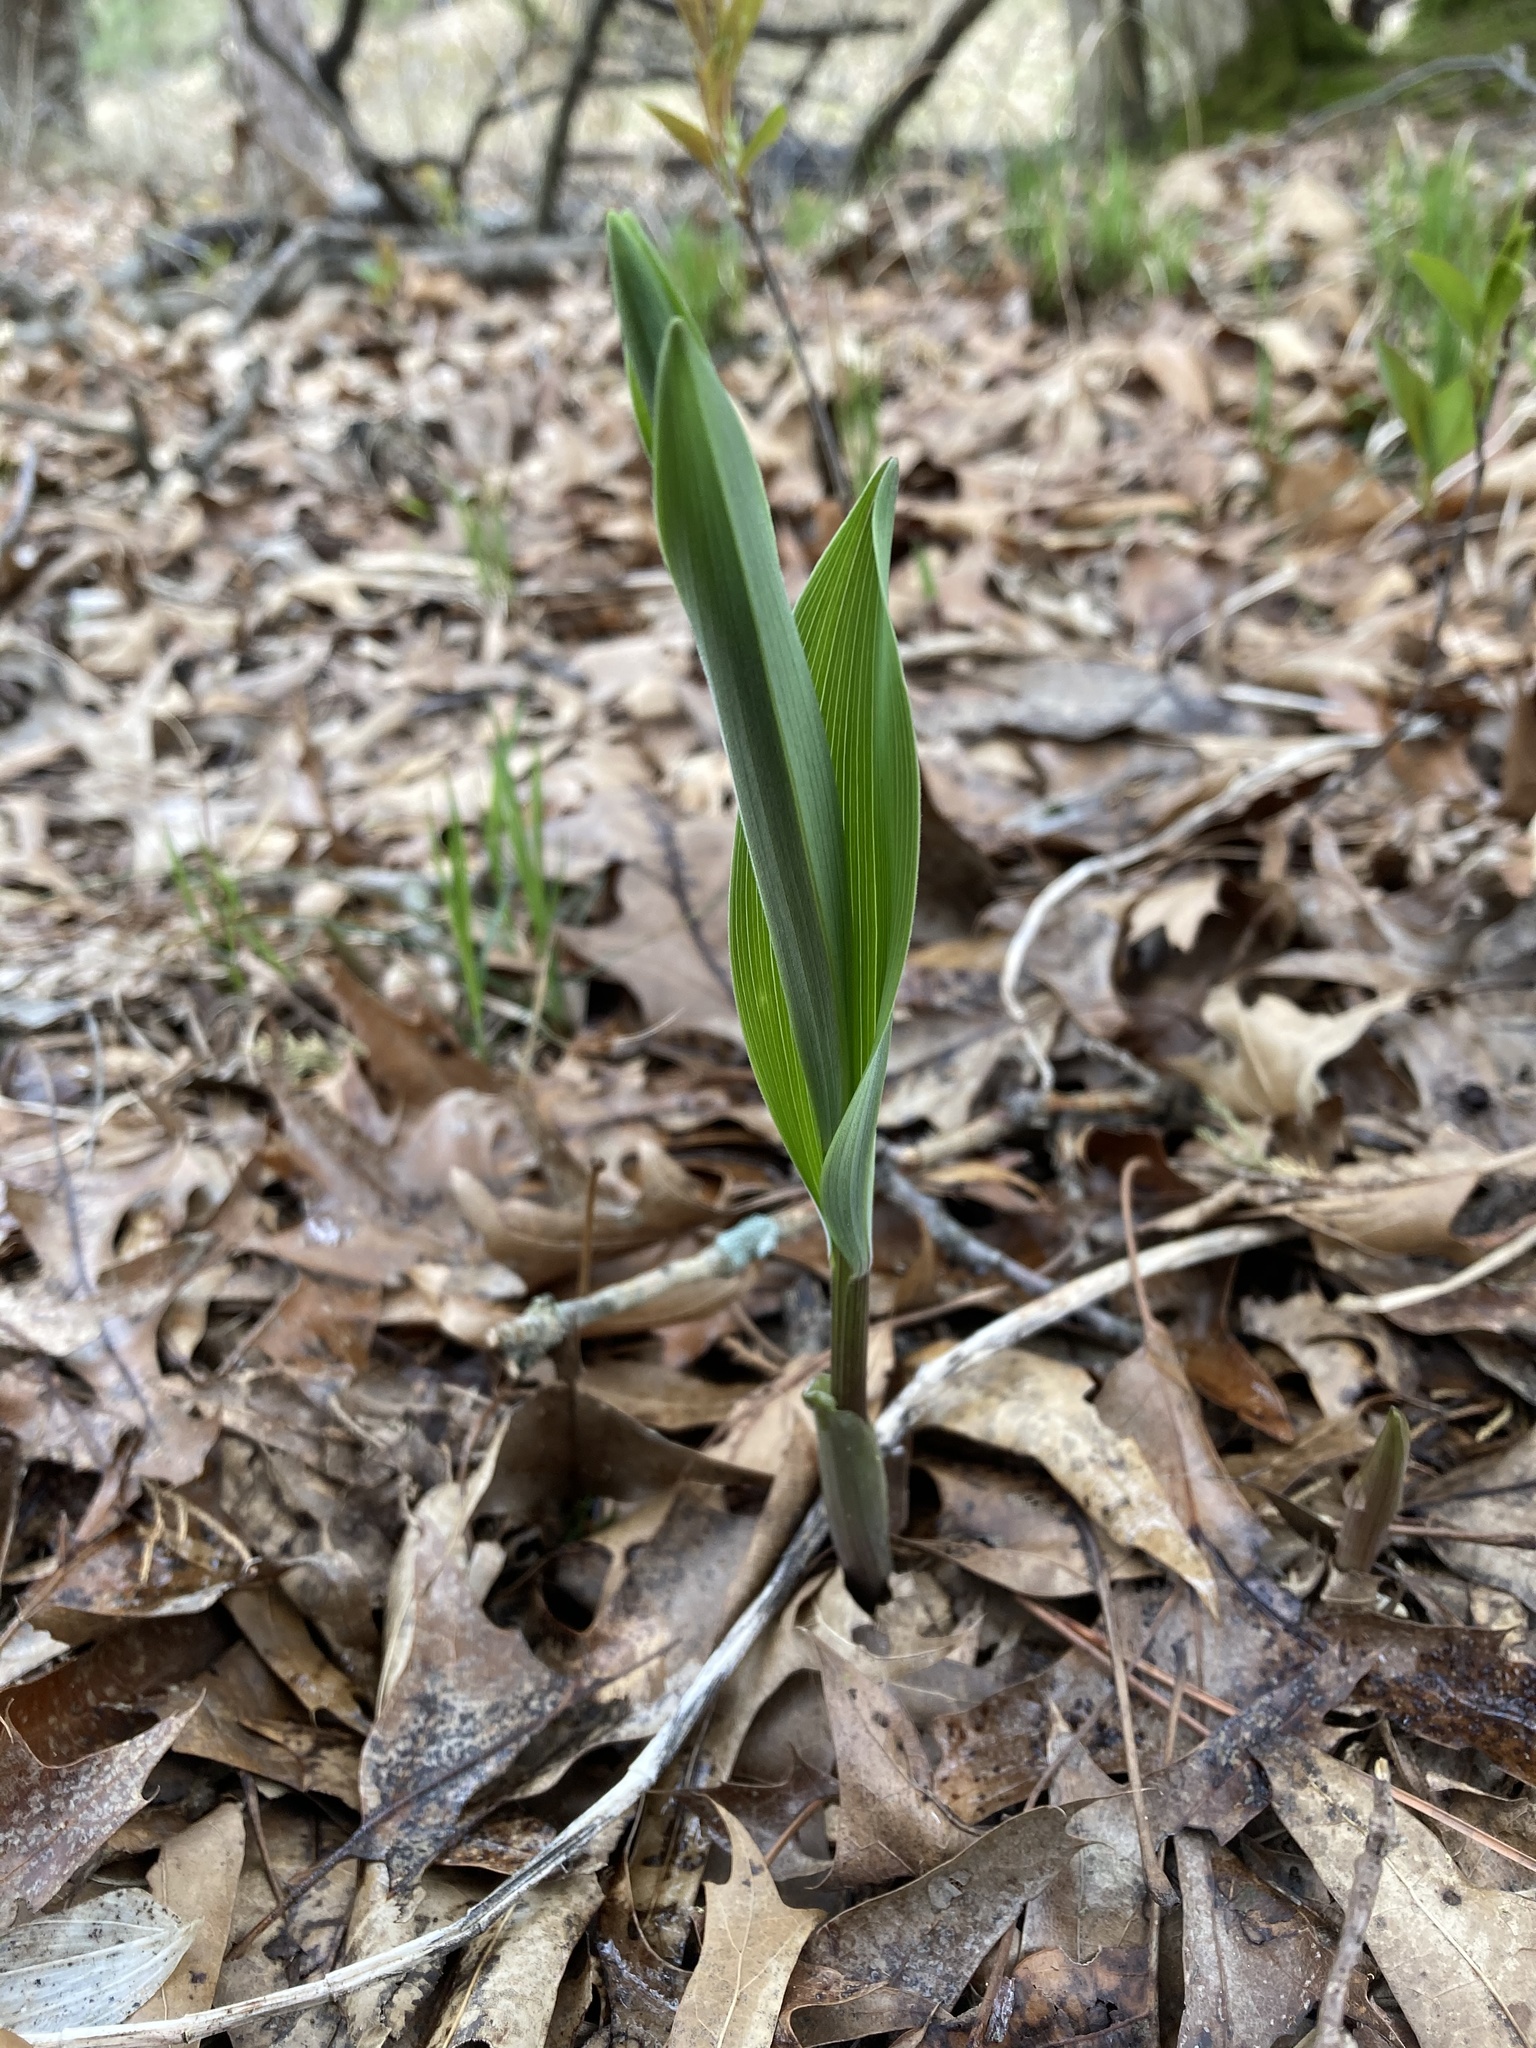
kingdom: Plantae
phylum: Tracheophyta
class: Liliopsida
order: Asparagales
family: Asparagaceae
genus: Maianthemum
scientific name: Maianthemum stellatum
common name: Little false solomon's seal
